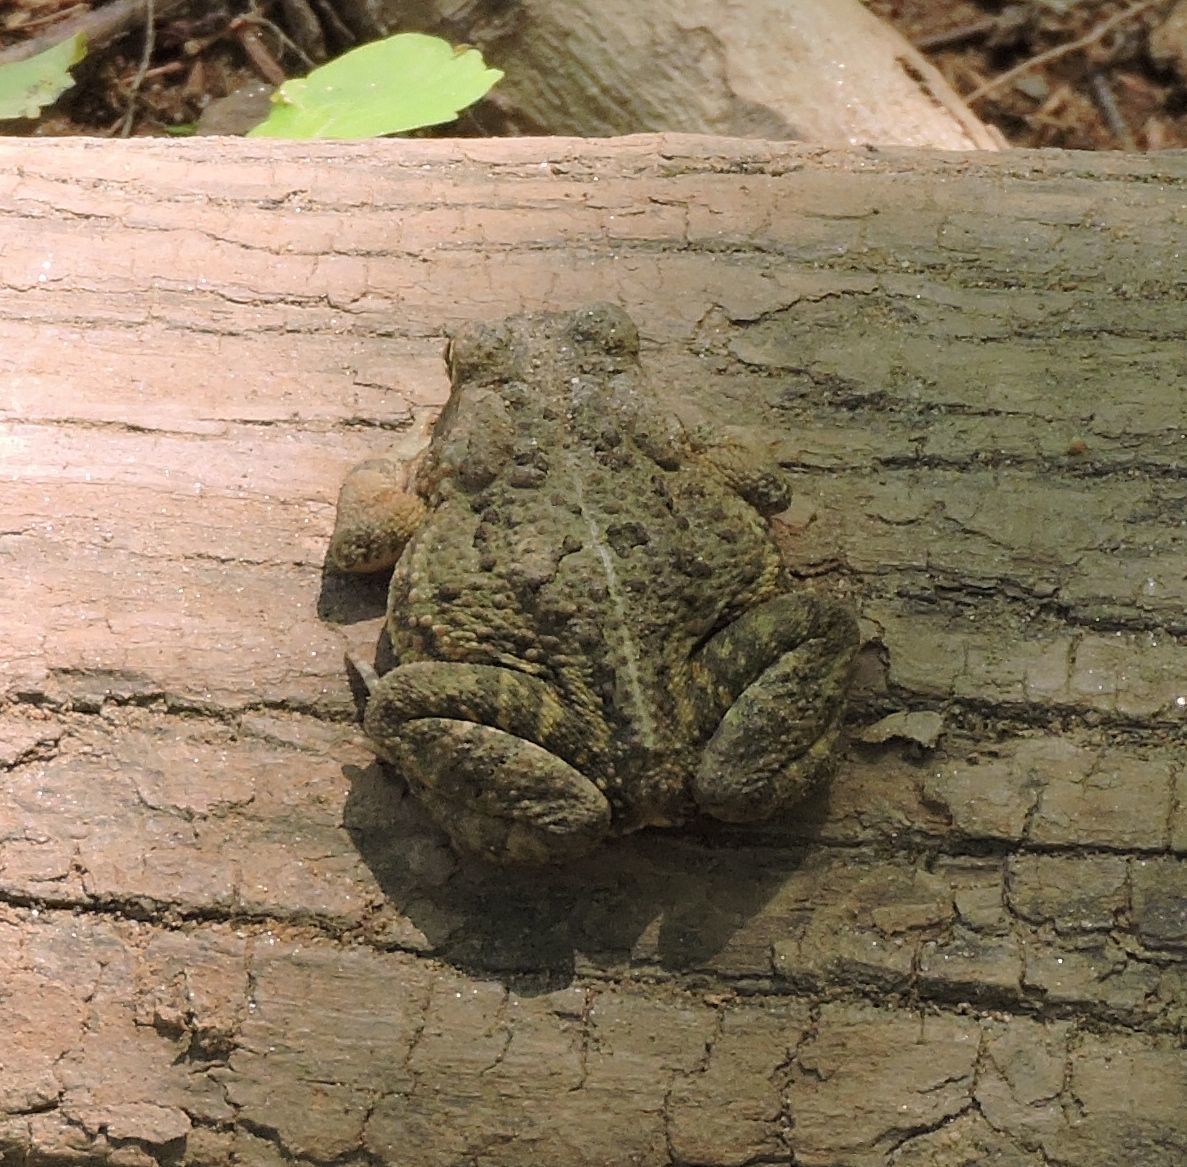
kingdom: Animalia
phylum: Chordata
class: Amphibia
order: Anura
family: Bufonidae
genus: Anaxyrus
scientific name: Anaxyrus fowleri
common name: Fowler's toad
